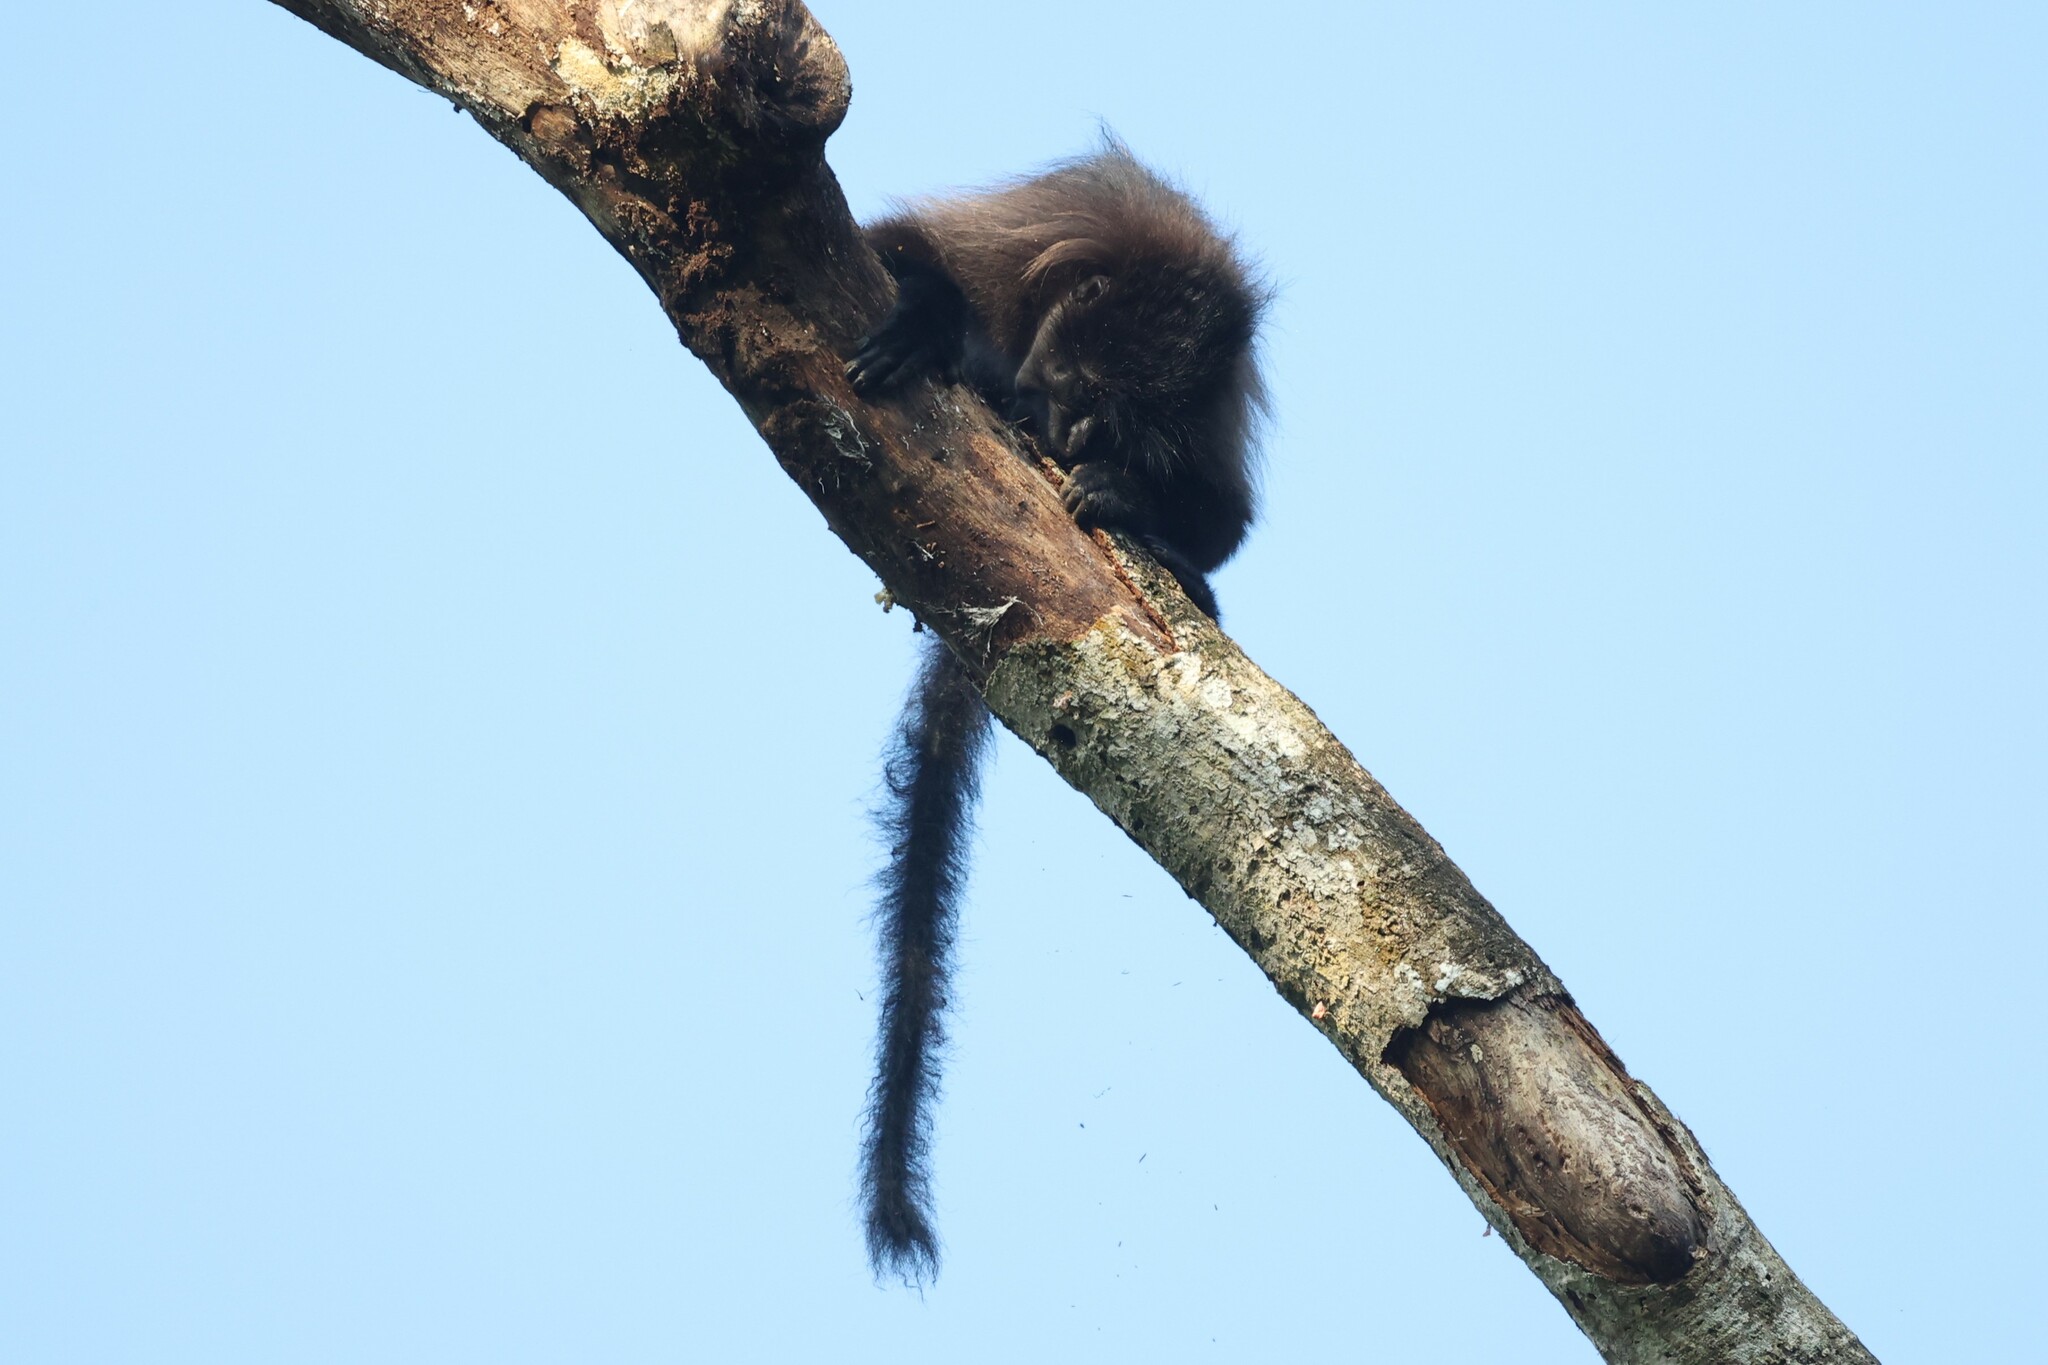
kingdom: Animalia
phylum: Chordata
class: Mammalia
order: Primates
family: Cercopithecidae
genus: Lophocebus
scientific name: Lophocebus albigena
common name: Gray-cheeked mangabey
